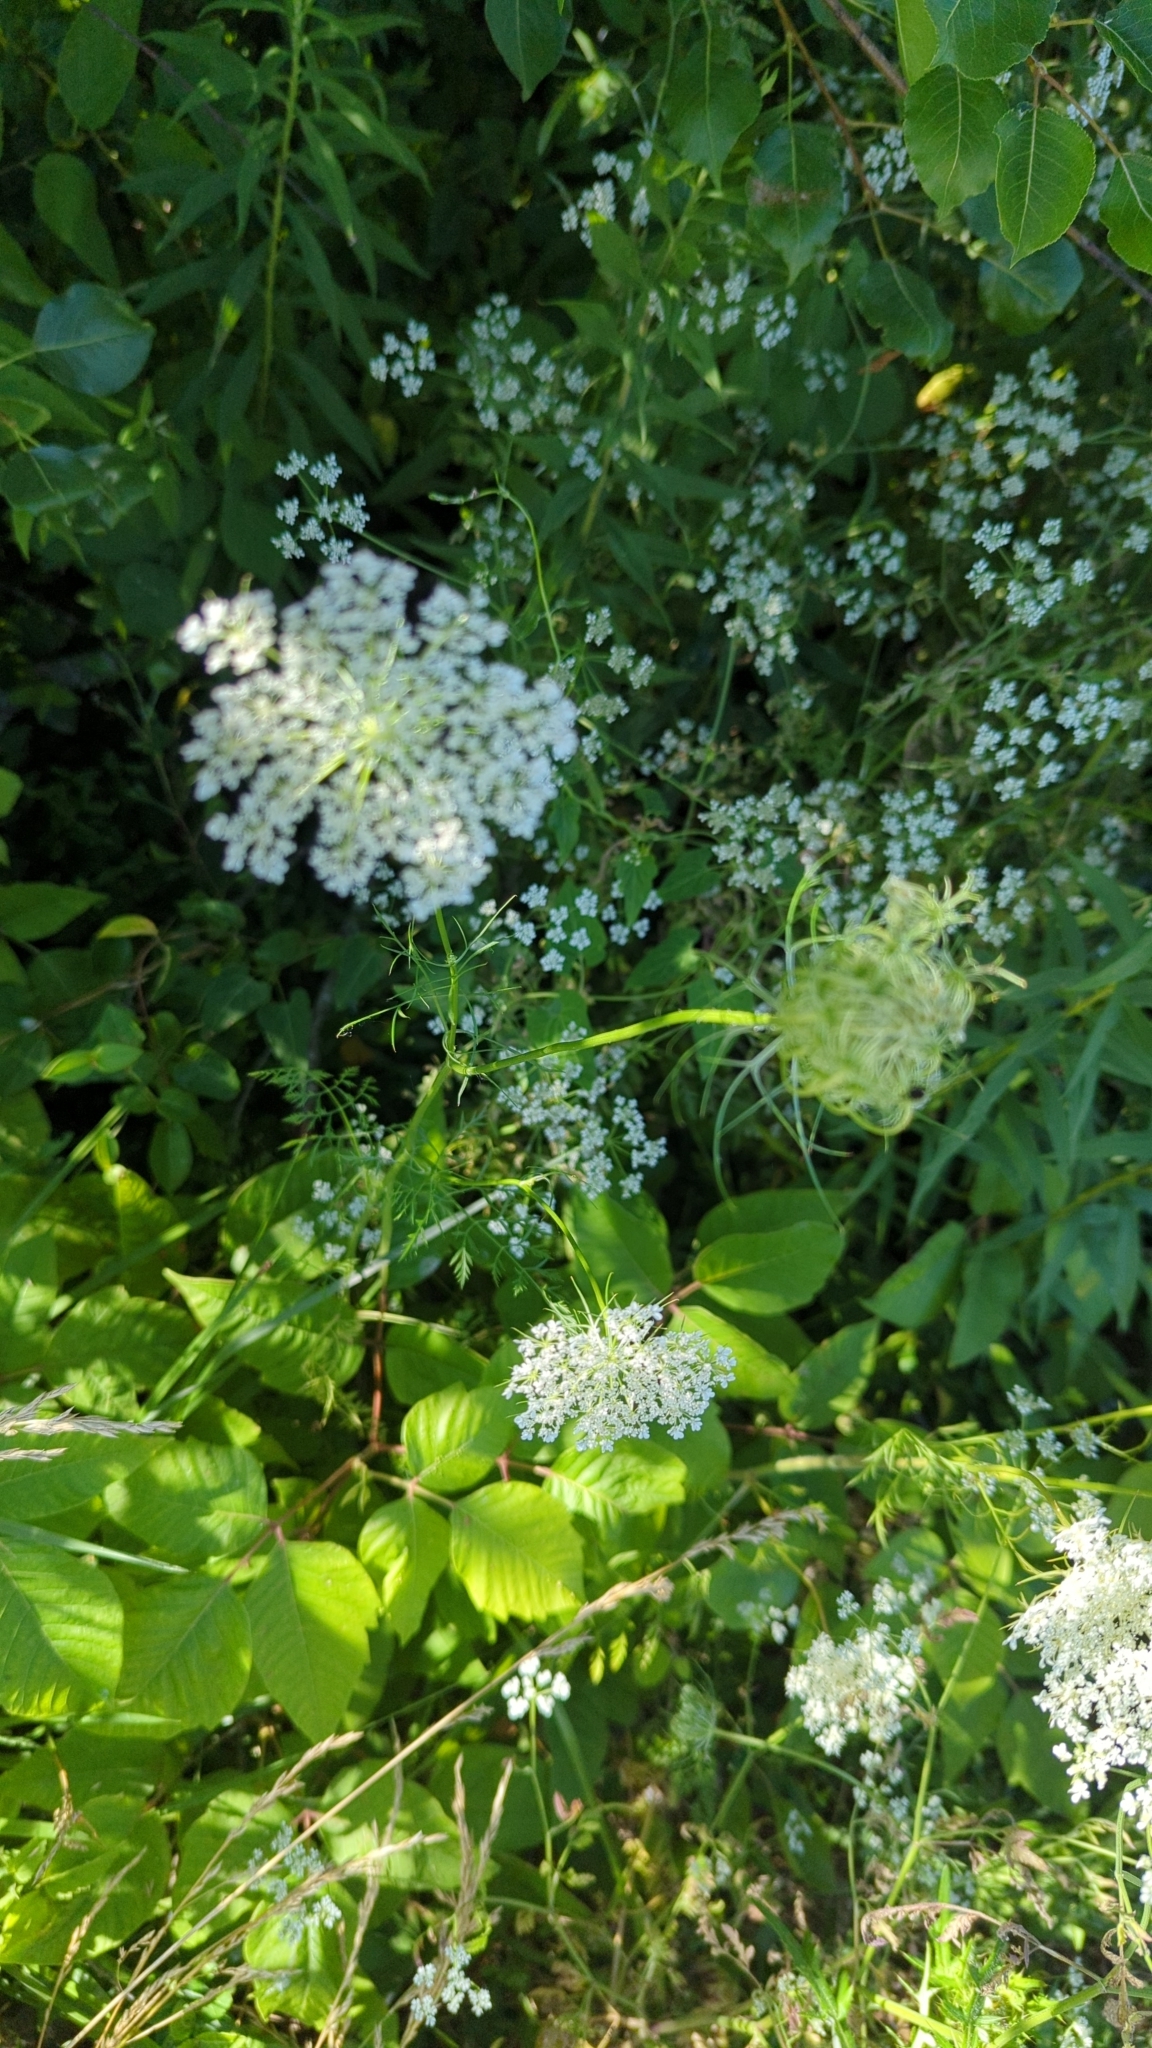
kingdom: Plantae
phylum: Tracheophyta
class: Magnoliopsida
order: Apiales
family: Apiaceae
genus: Daucus
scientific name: Daucus carota
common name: Wild carrot
